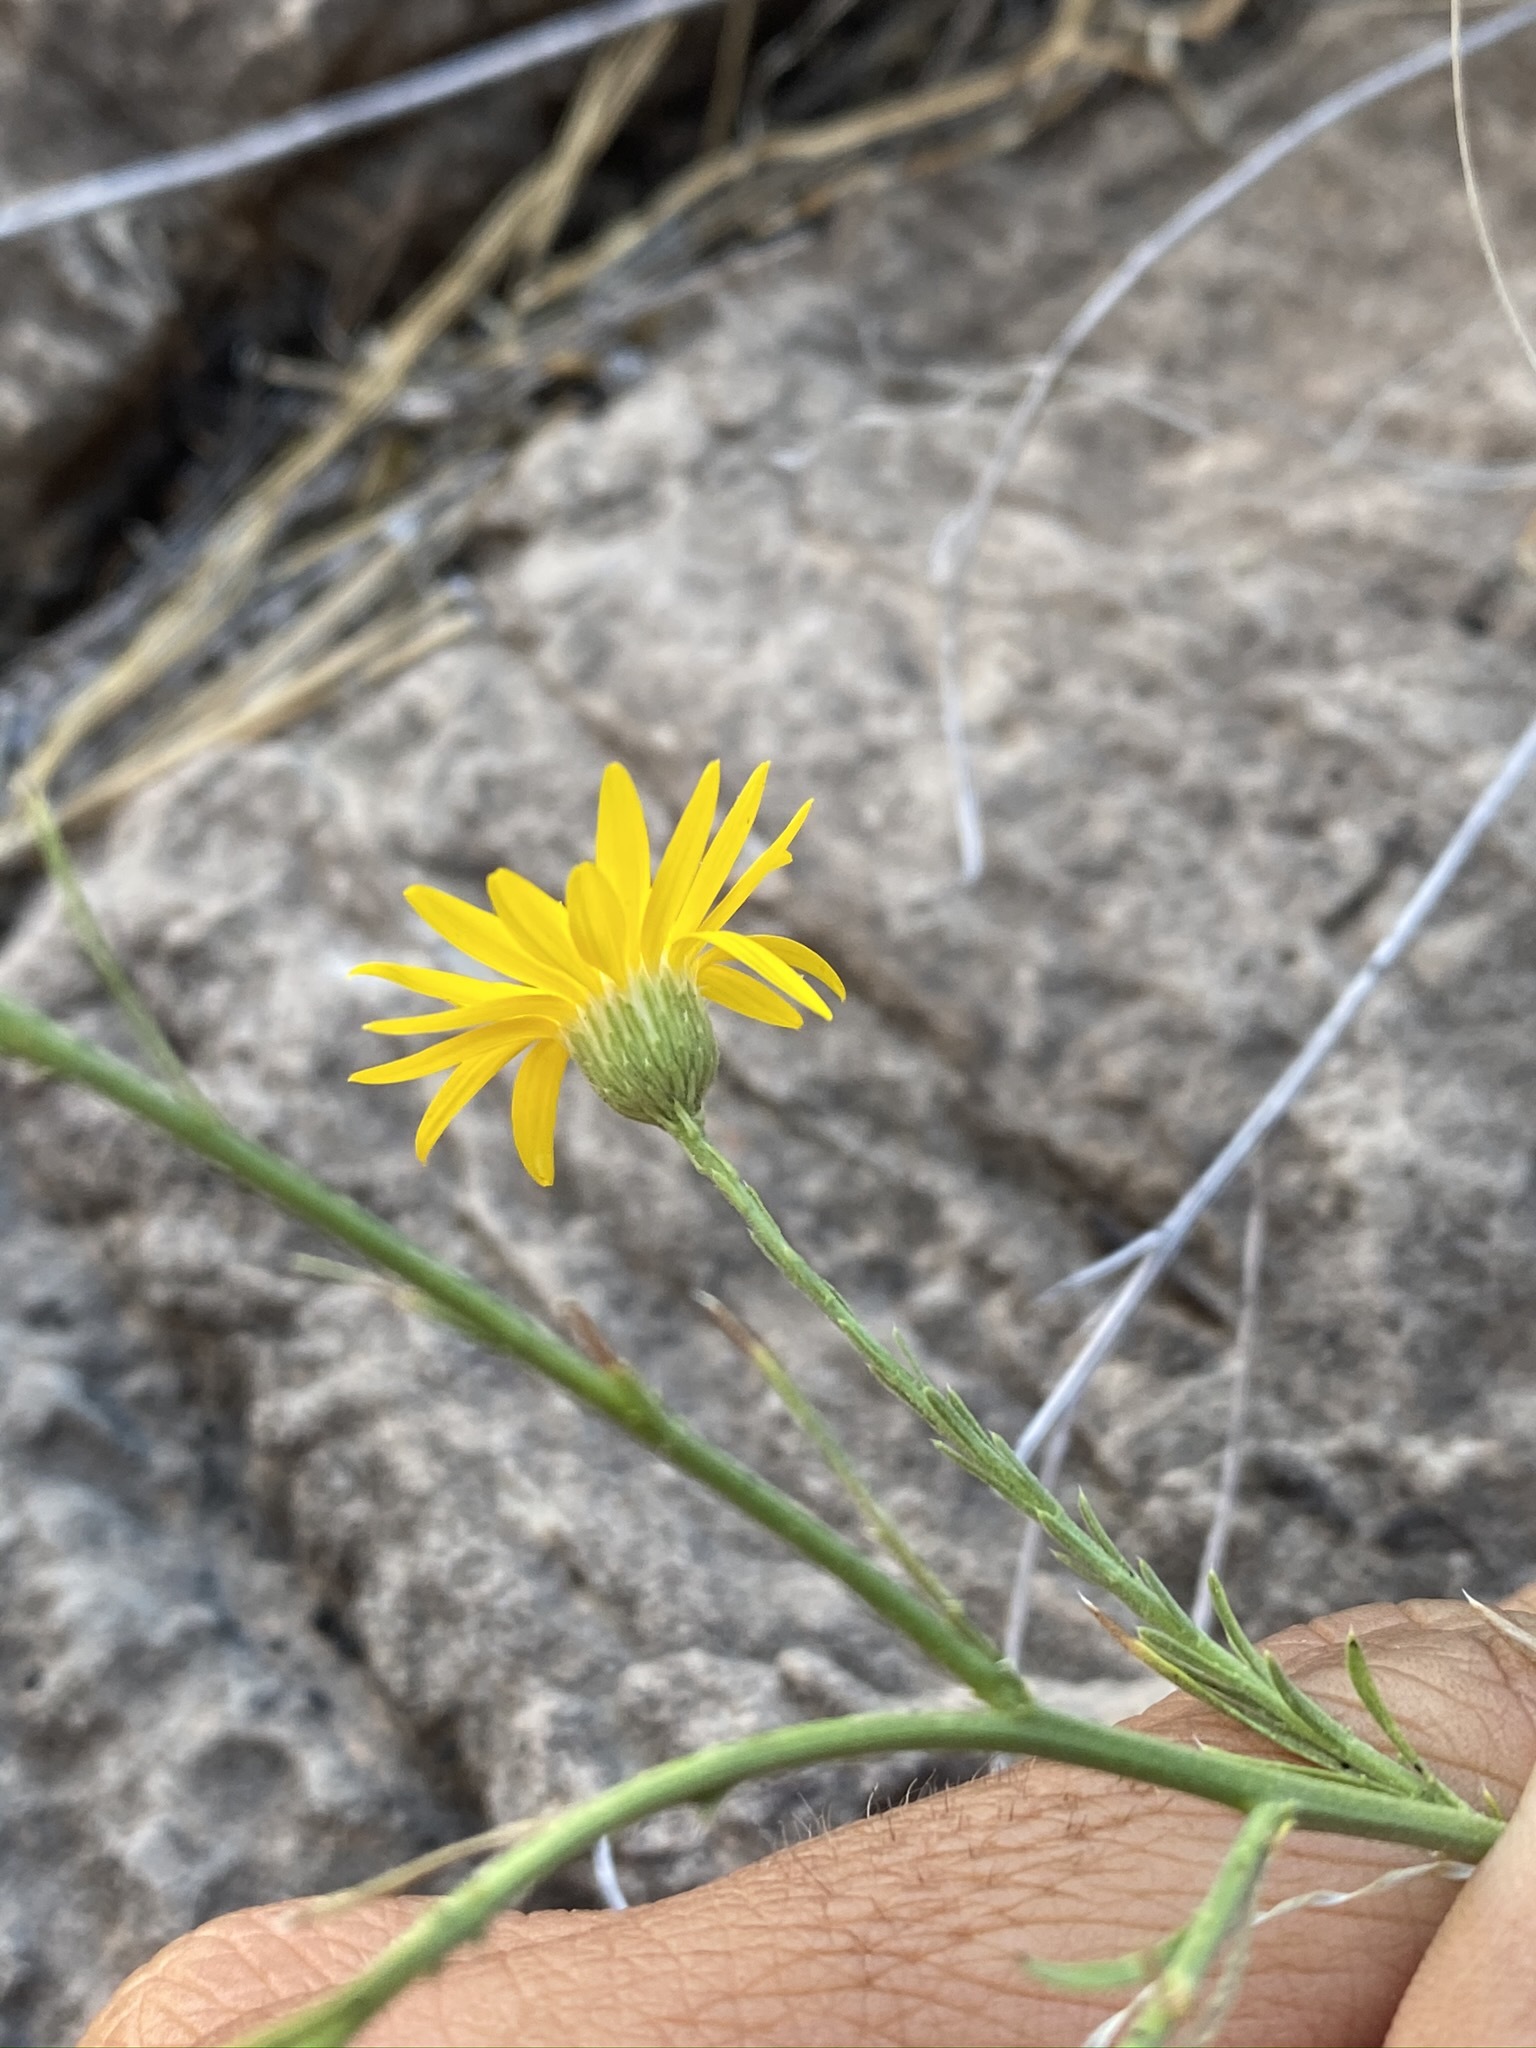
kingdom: Plantae
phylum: Tracheophyta
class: Magnoliopsida
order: Asterales
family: Asteraceae
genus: Xanthisma
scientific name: Xanthisma spinulosum
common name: Spiny goldenweed
